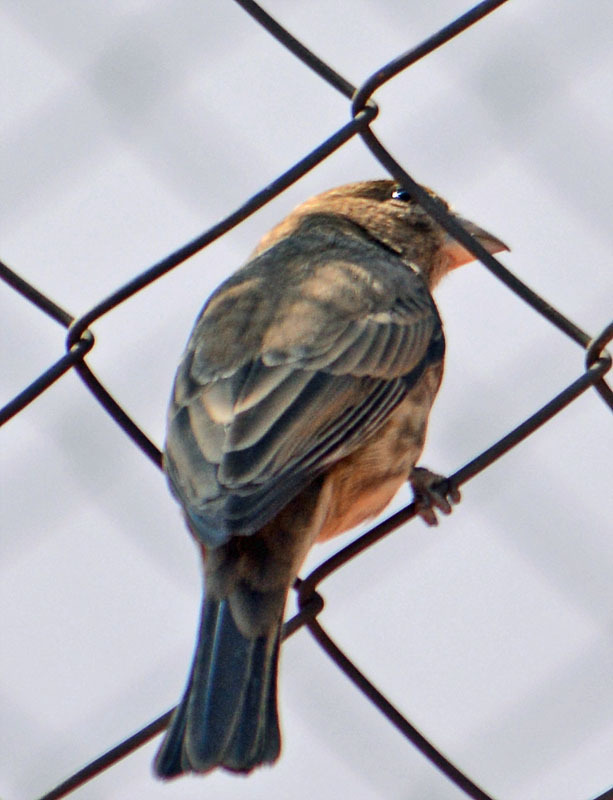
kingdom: Animalia
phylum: Chordata
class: Aves
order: Passeriformes
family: Fringillidae
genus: Haemorhous
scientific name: Haemorhous mexicanus
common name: House finch
